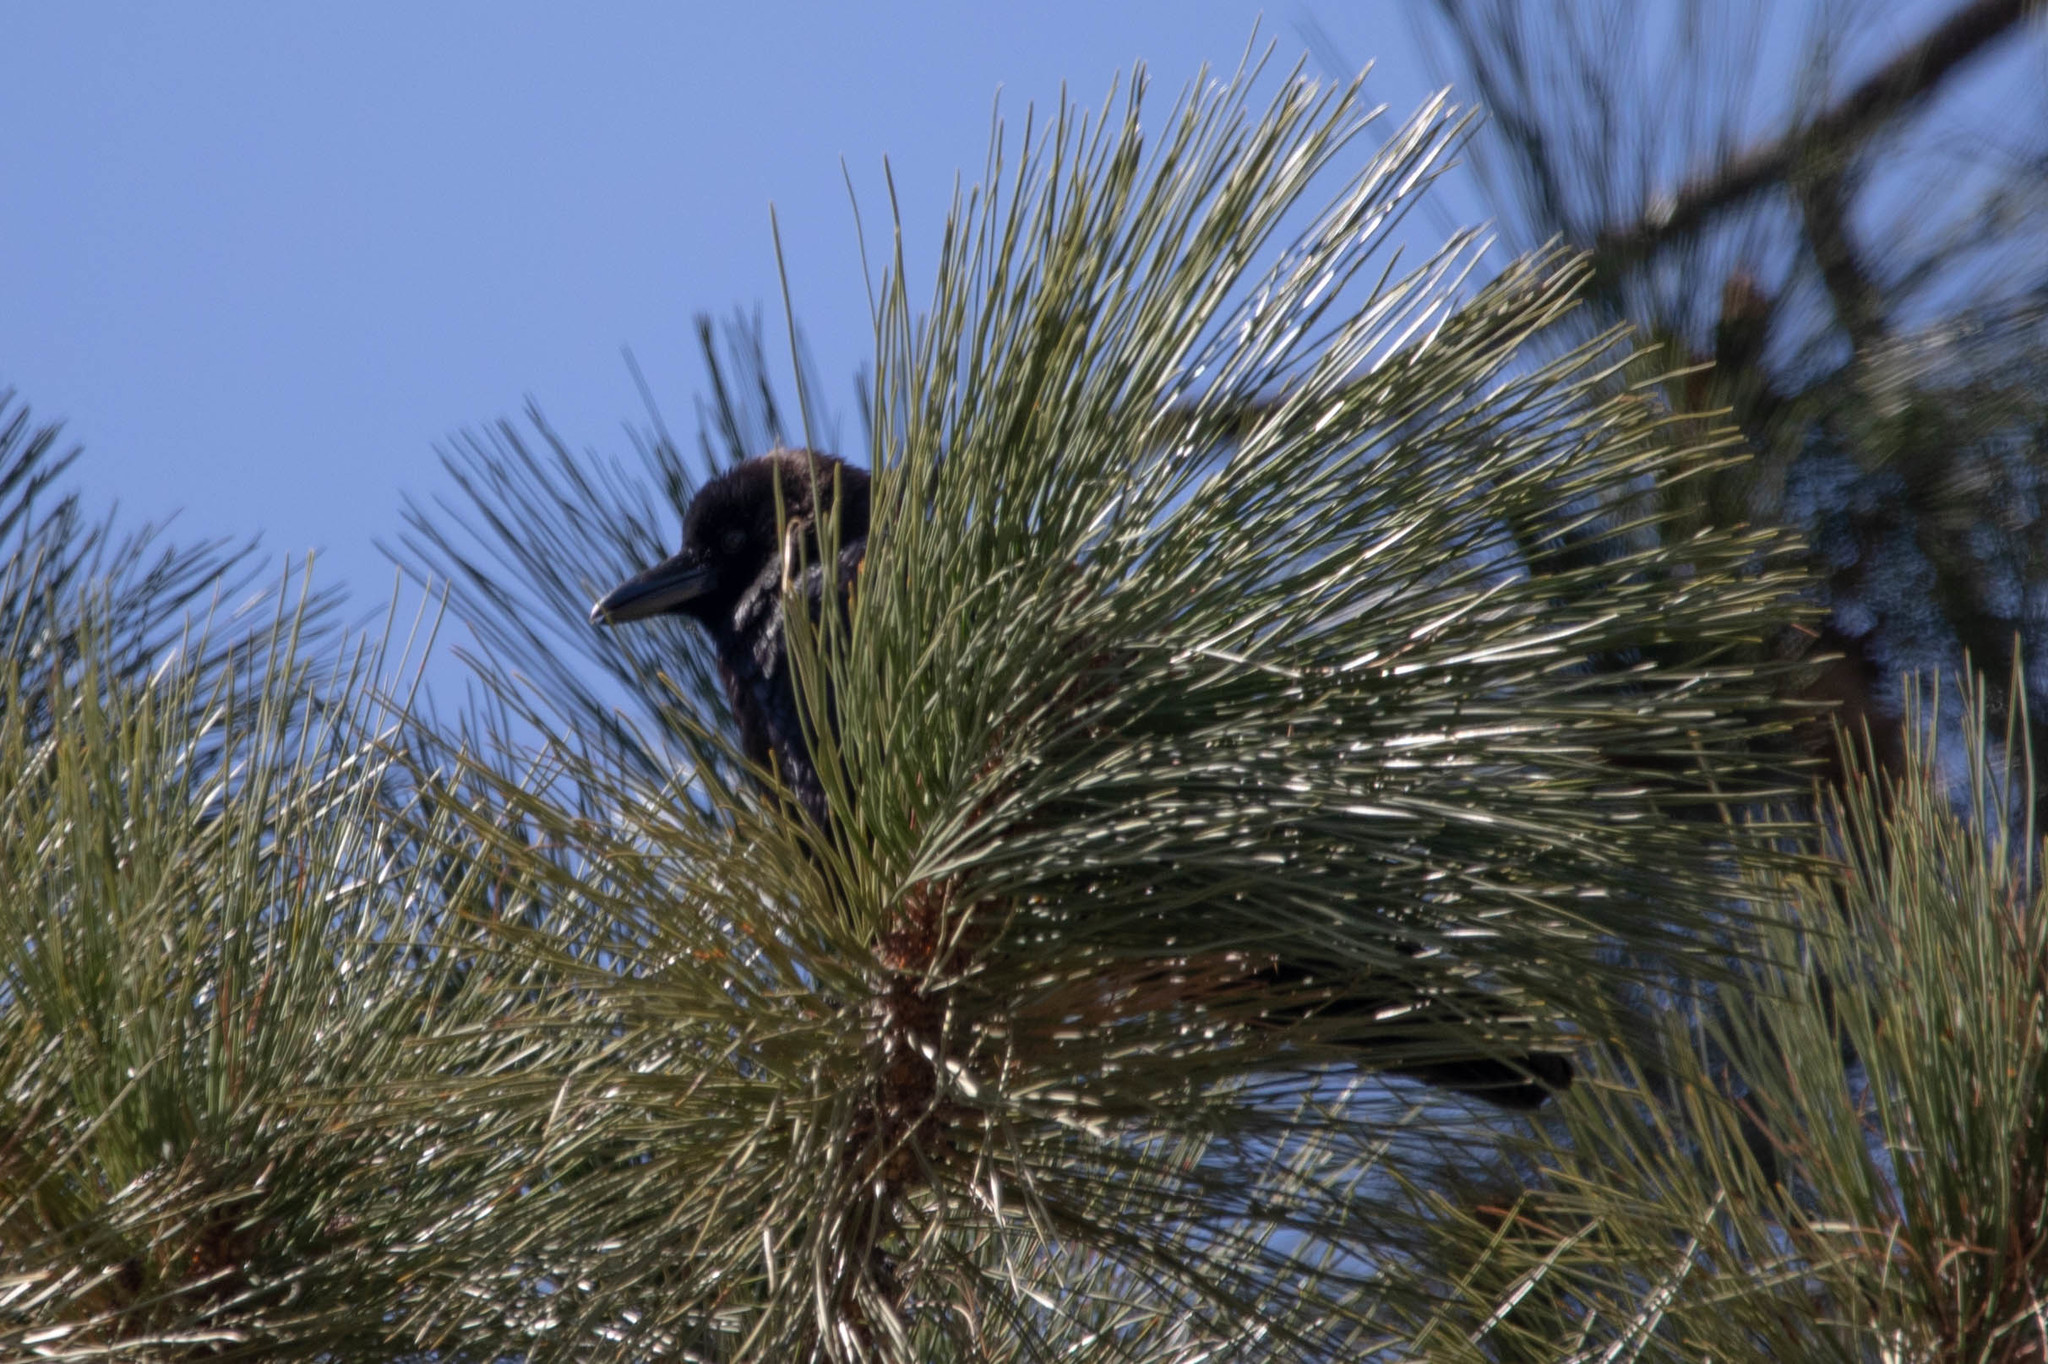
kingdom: Animalia
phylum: Chordata
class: Aves
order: Passeriformes
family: Corvidae
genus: Corvus
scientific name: Corvus brachyrhynchos
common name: American crow
